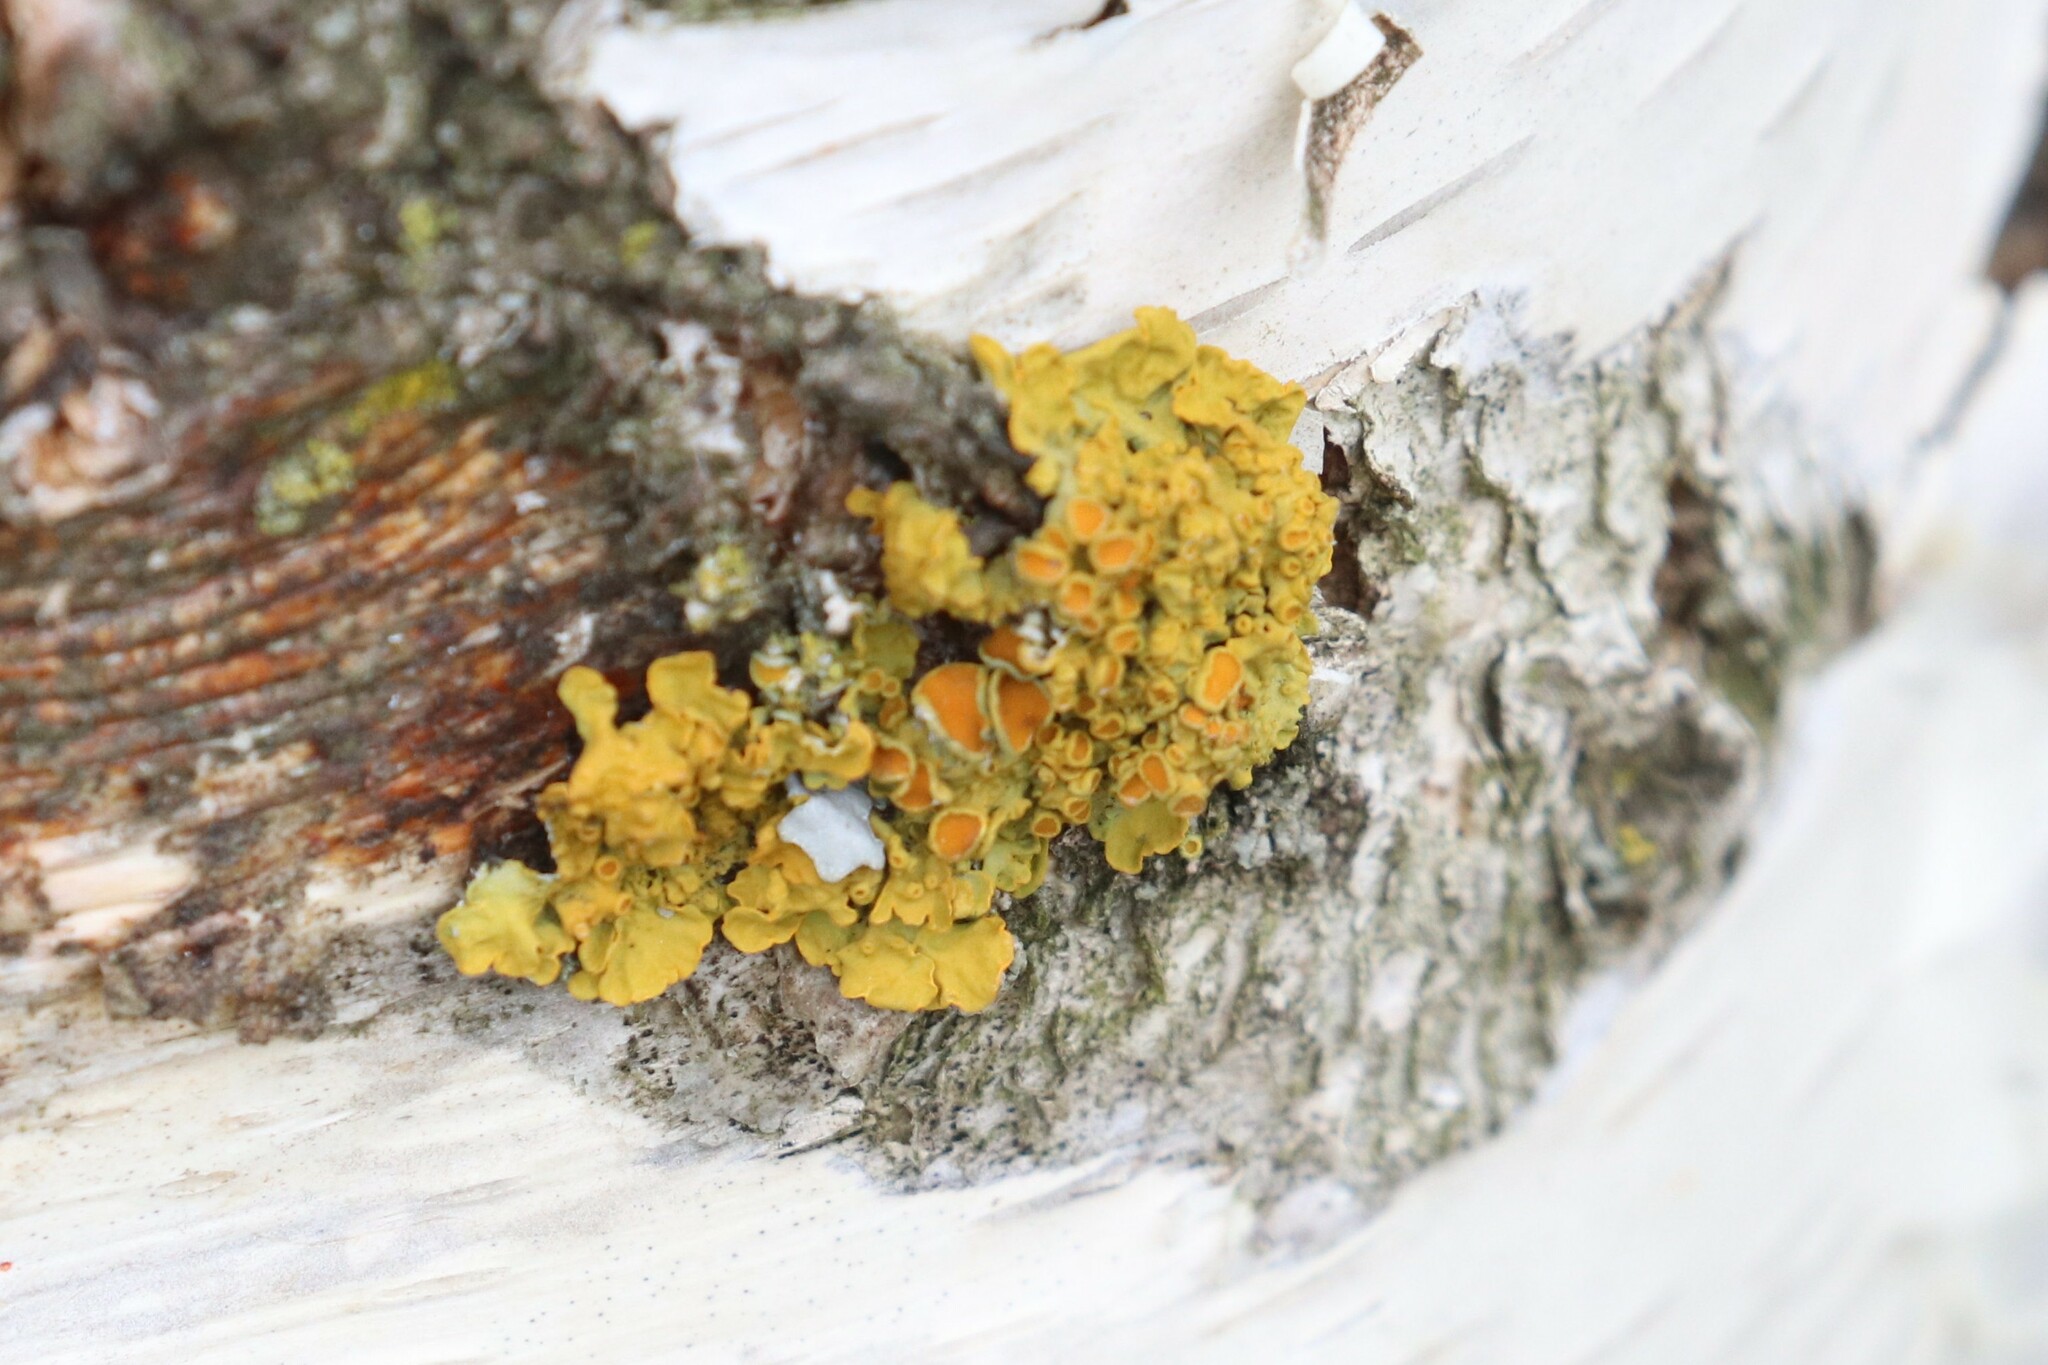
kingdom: Fungi
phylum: Ascomycota
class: Lecanoromycetes
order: Teloschistales
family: Teloschistaceae
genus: Xanthoria
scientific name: Xanthoria parietina
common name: Common orange lichen
